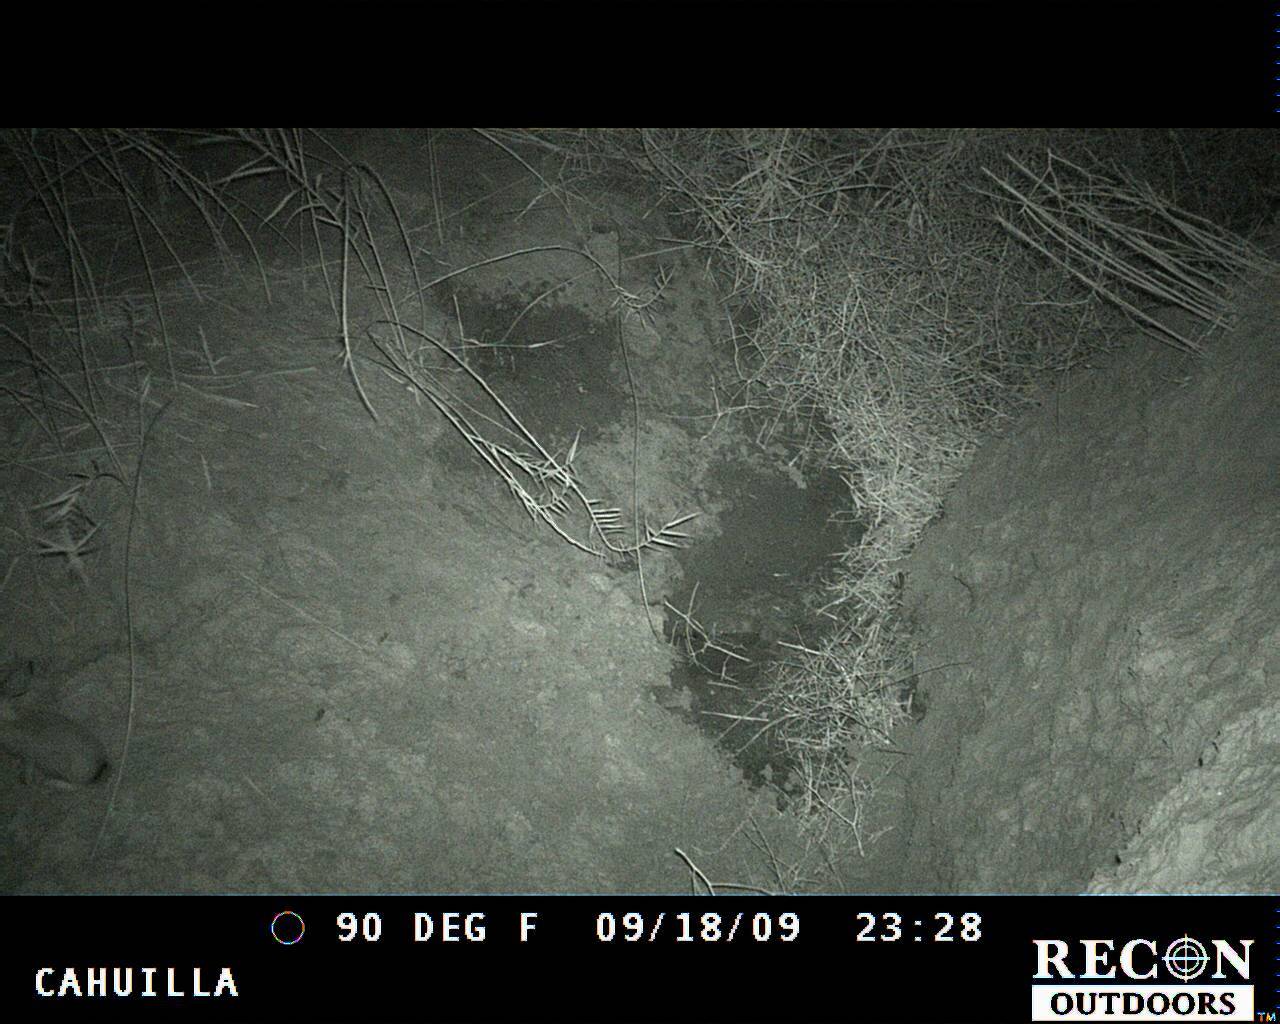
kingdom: Animalia
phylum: Chordata
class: Mammalia
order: Lagomorpha
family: Leporidae
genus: Lepus
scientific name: Lepus californicus
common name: Black-tailed jackrabbit
